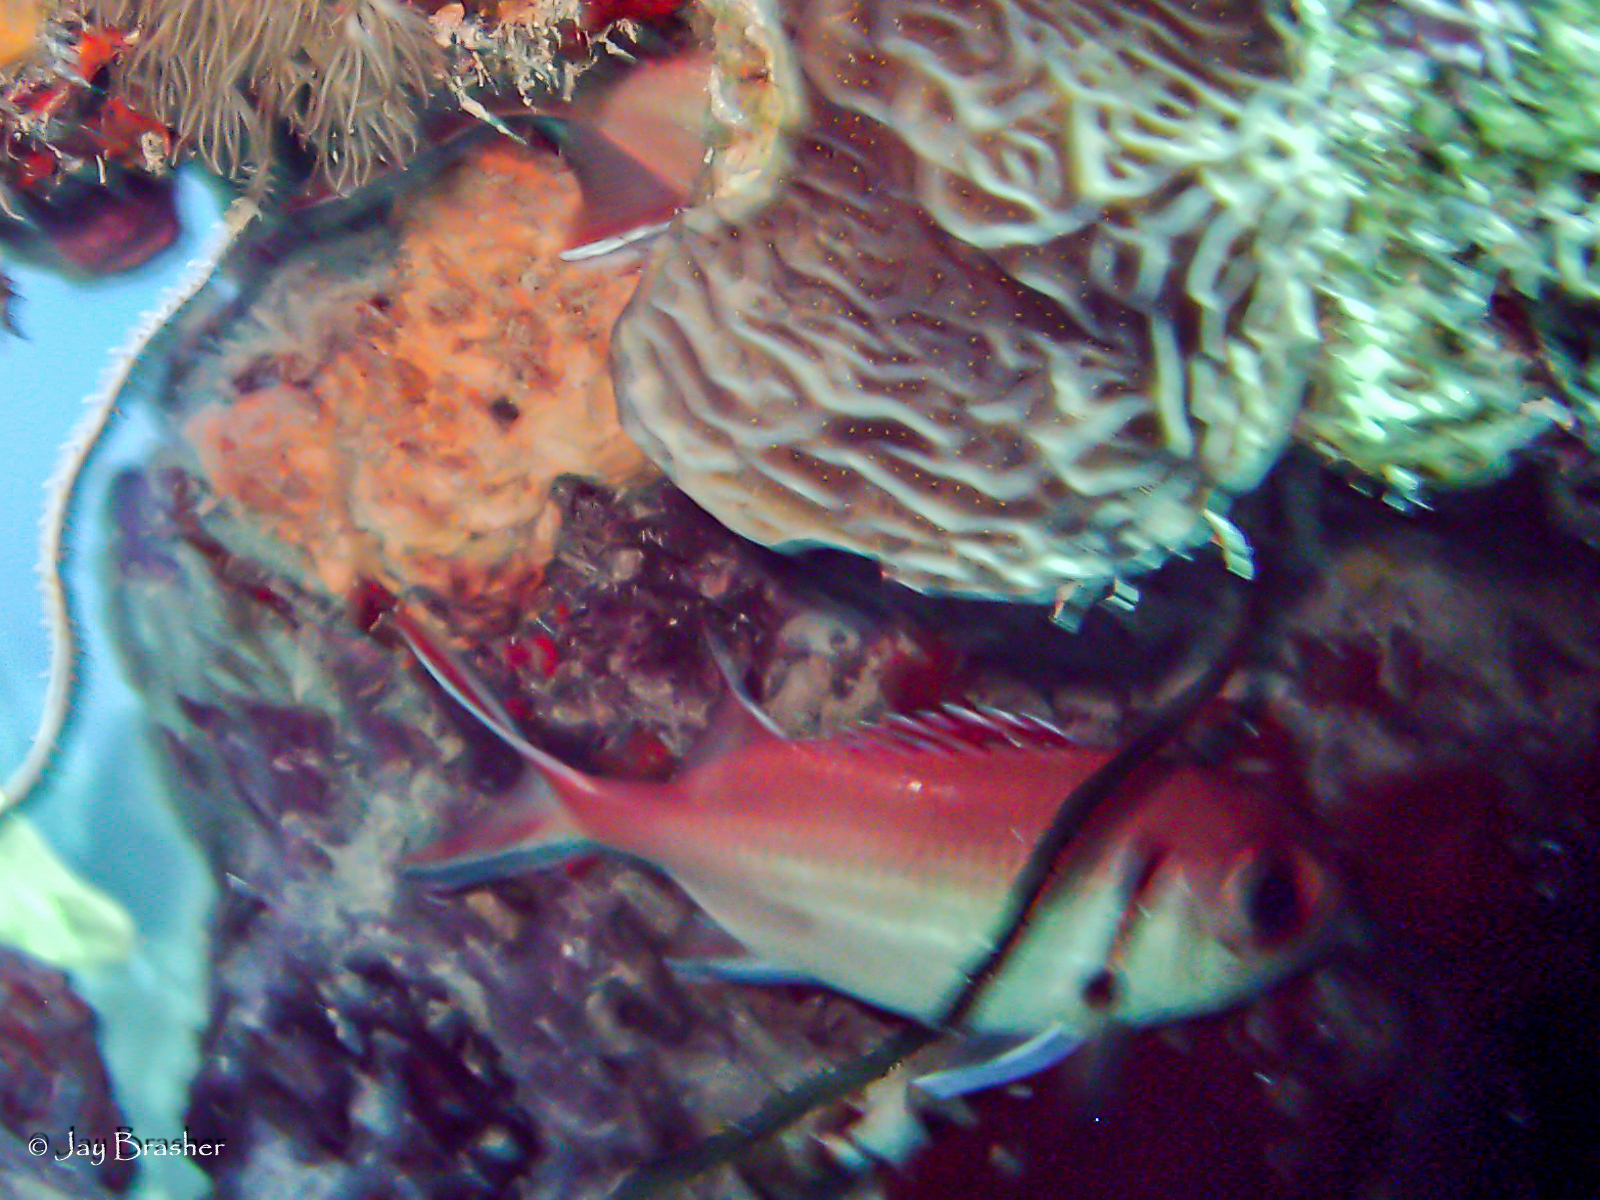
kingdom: Animalia
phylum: Chordata
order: Beryciformes
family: Holocentridae
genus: Myripristis
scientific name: Myripristis jacobus
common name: Blackbar soldierfish
